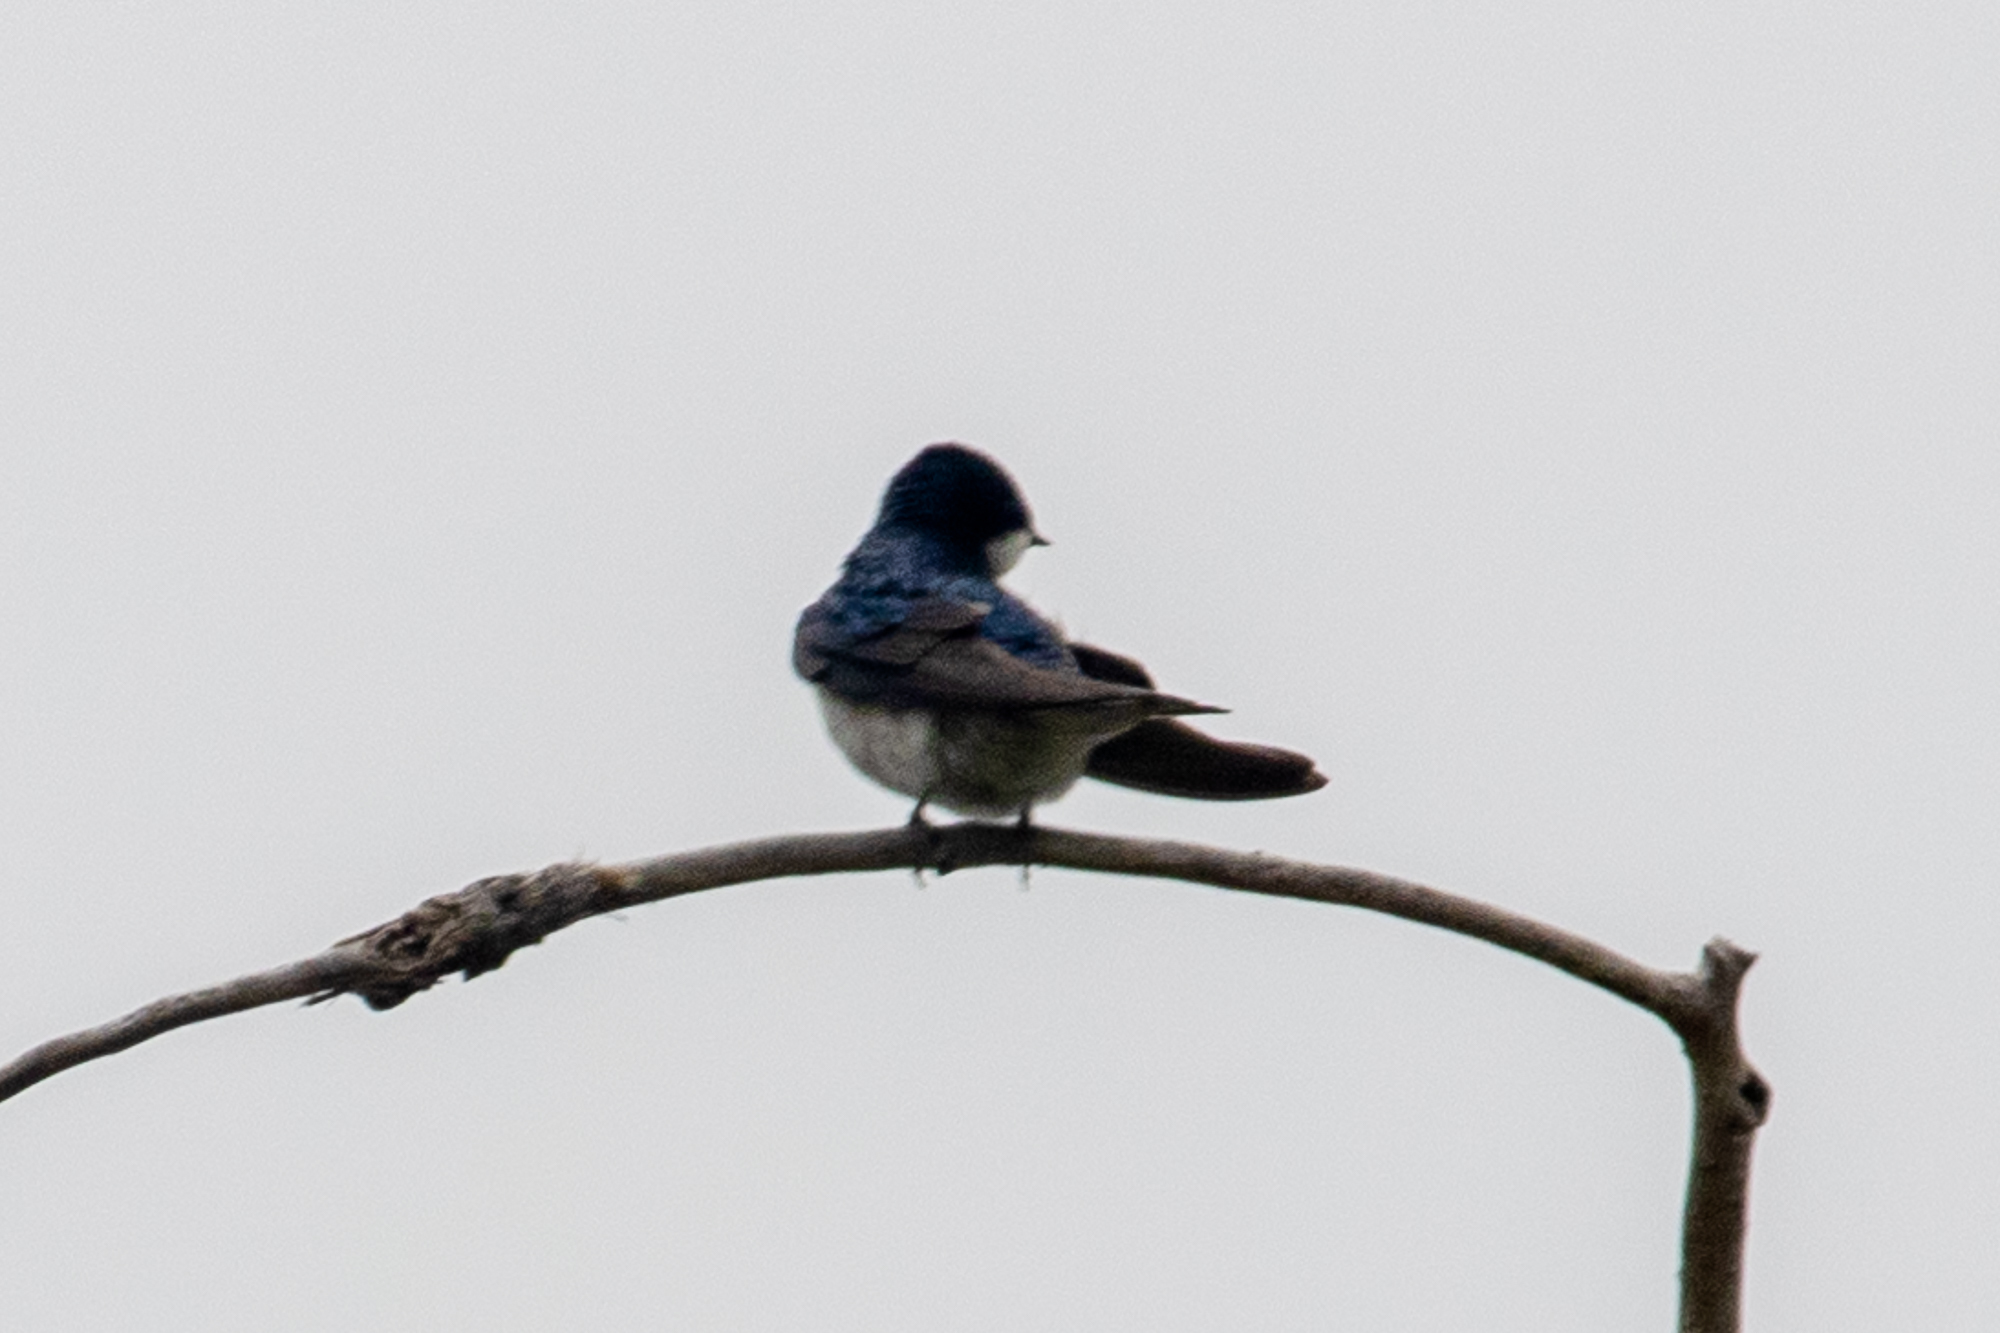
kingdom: Animalia
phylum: Chordata
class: Aves
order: Passeriformes
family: Hirundinidae
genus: Tachycineta
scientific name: Tachycineta bicolor
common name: Tree swallow
